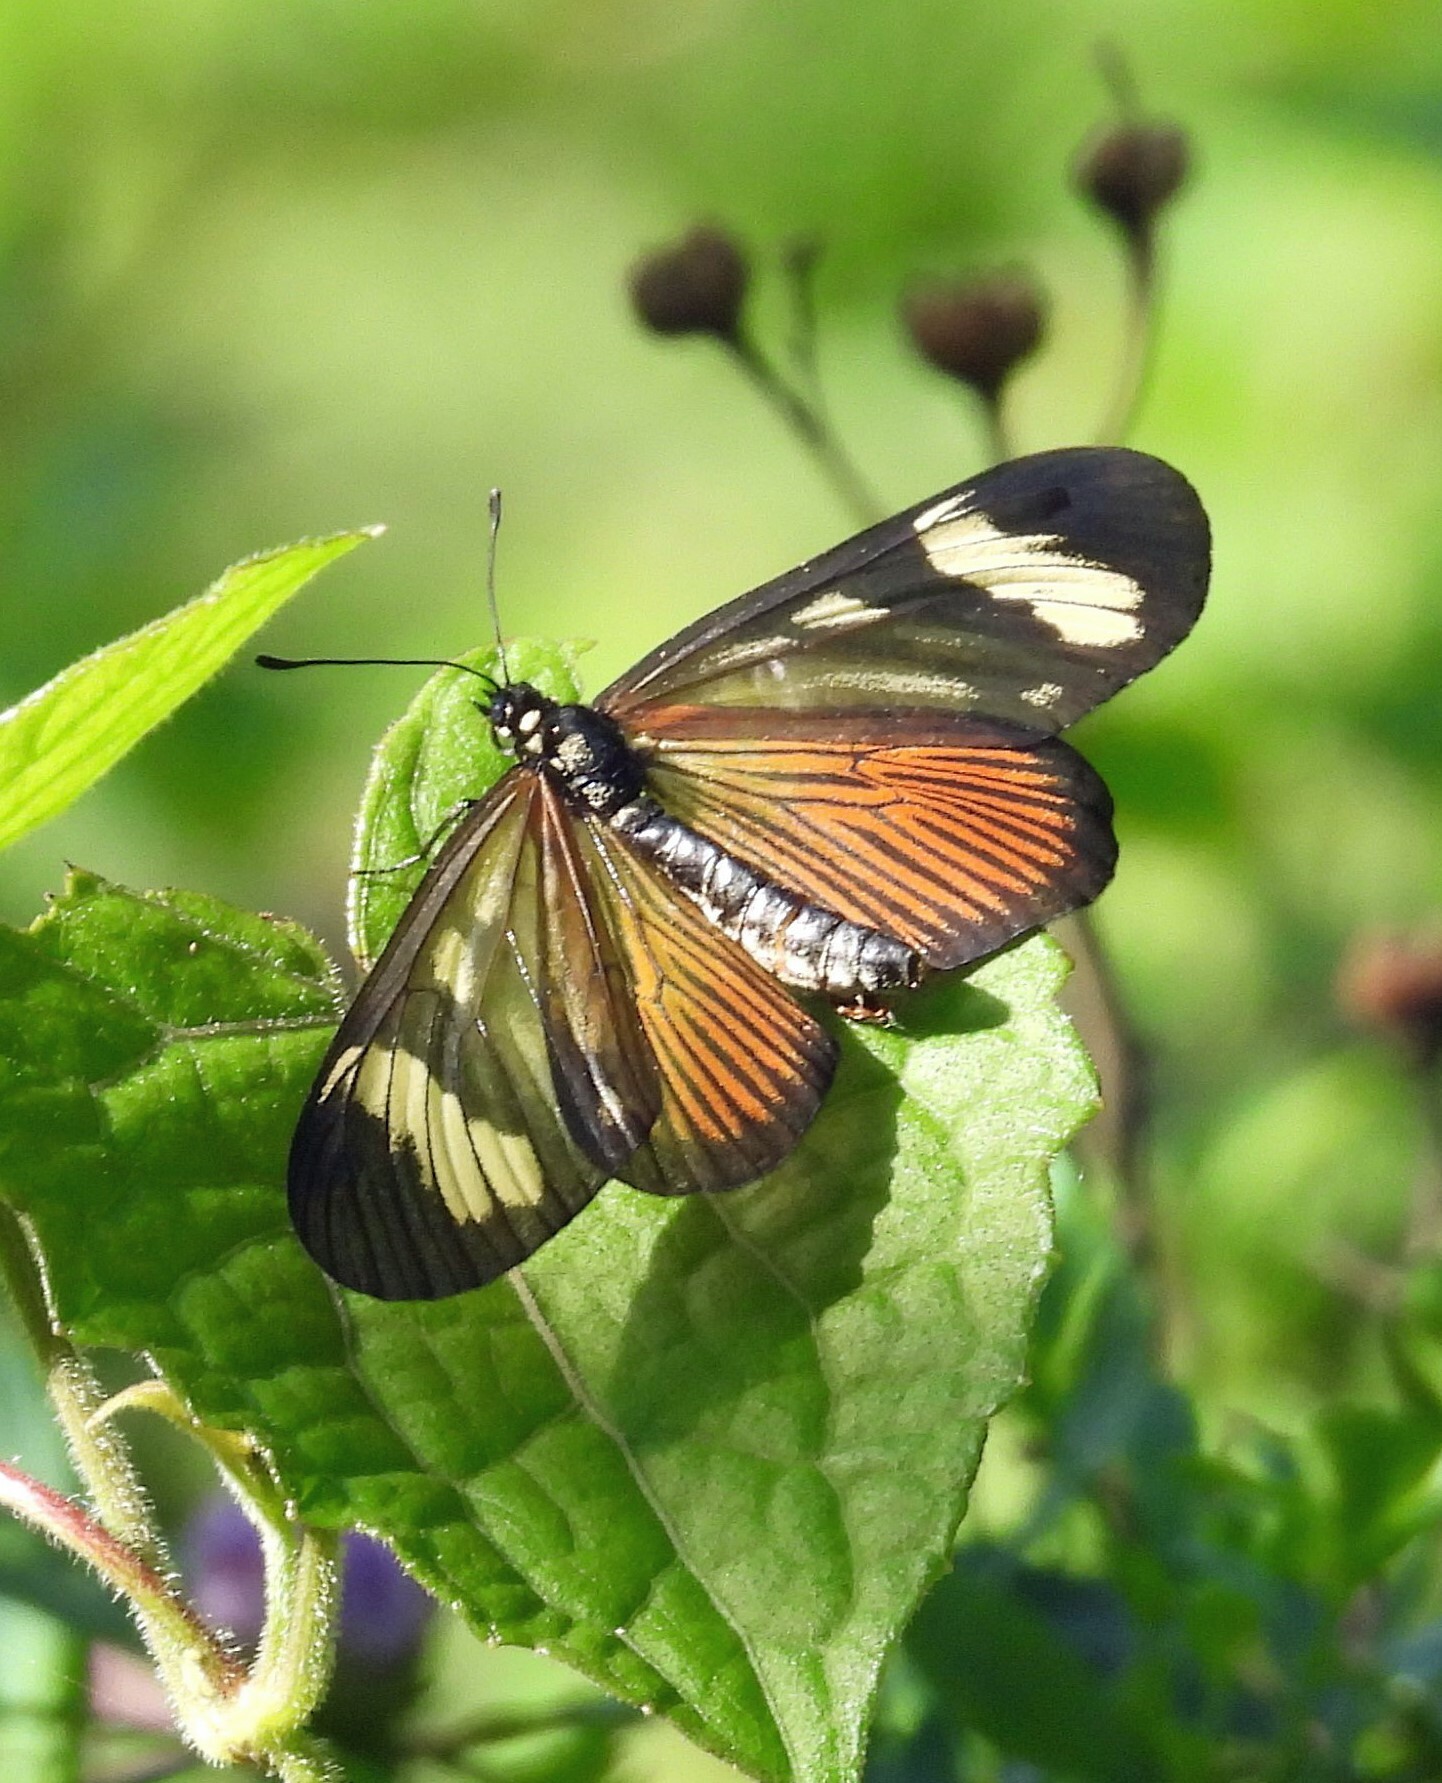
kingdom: Animalia
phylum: Arthropoda
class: Insecta
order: Lepidoptera
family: Nymphalidae
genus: Actinote
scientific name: Actinote melanisans
